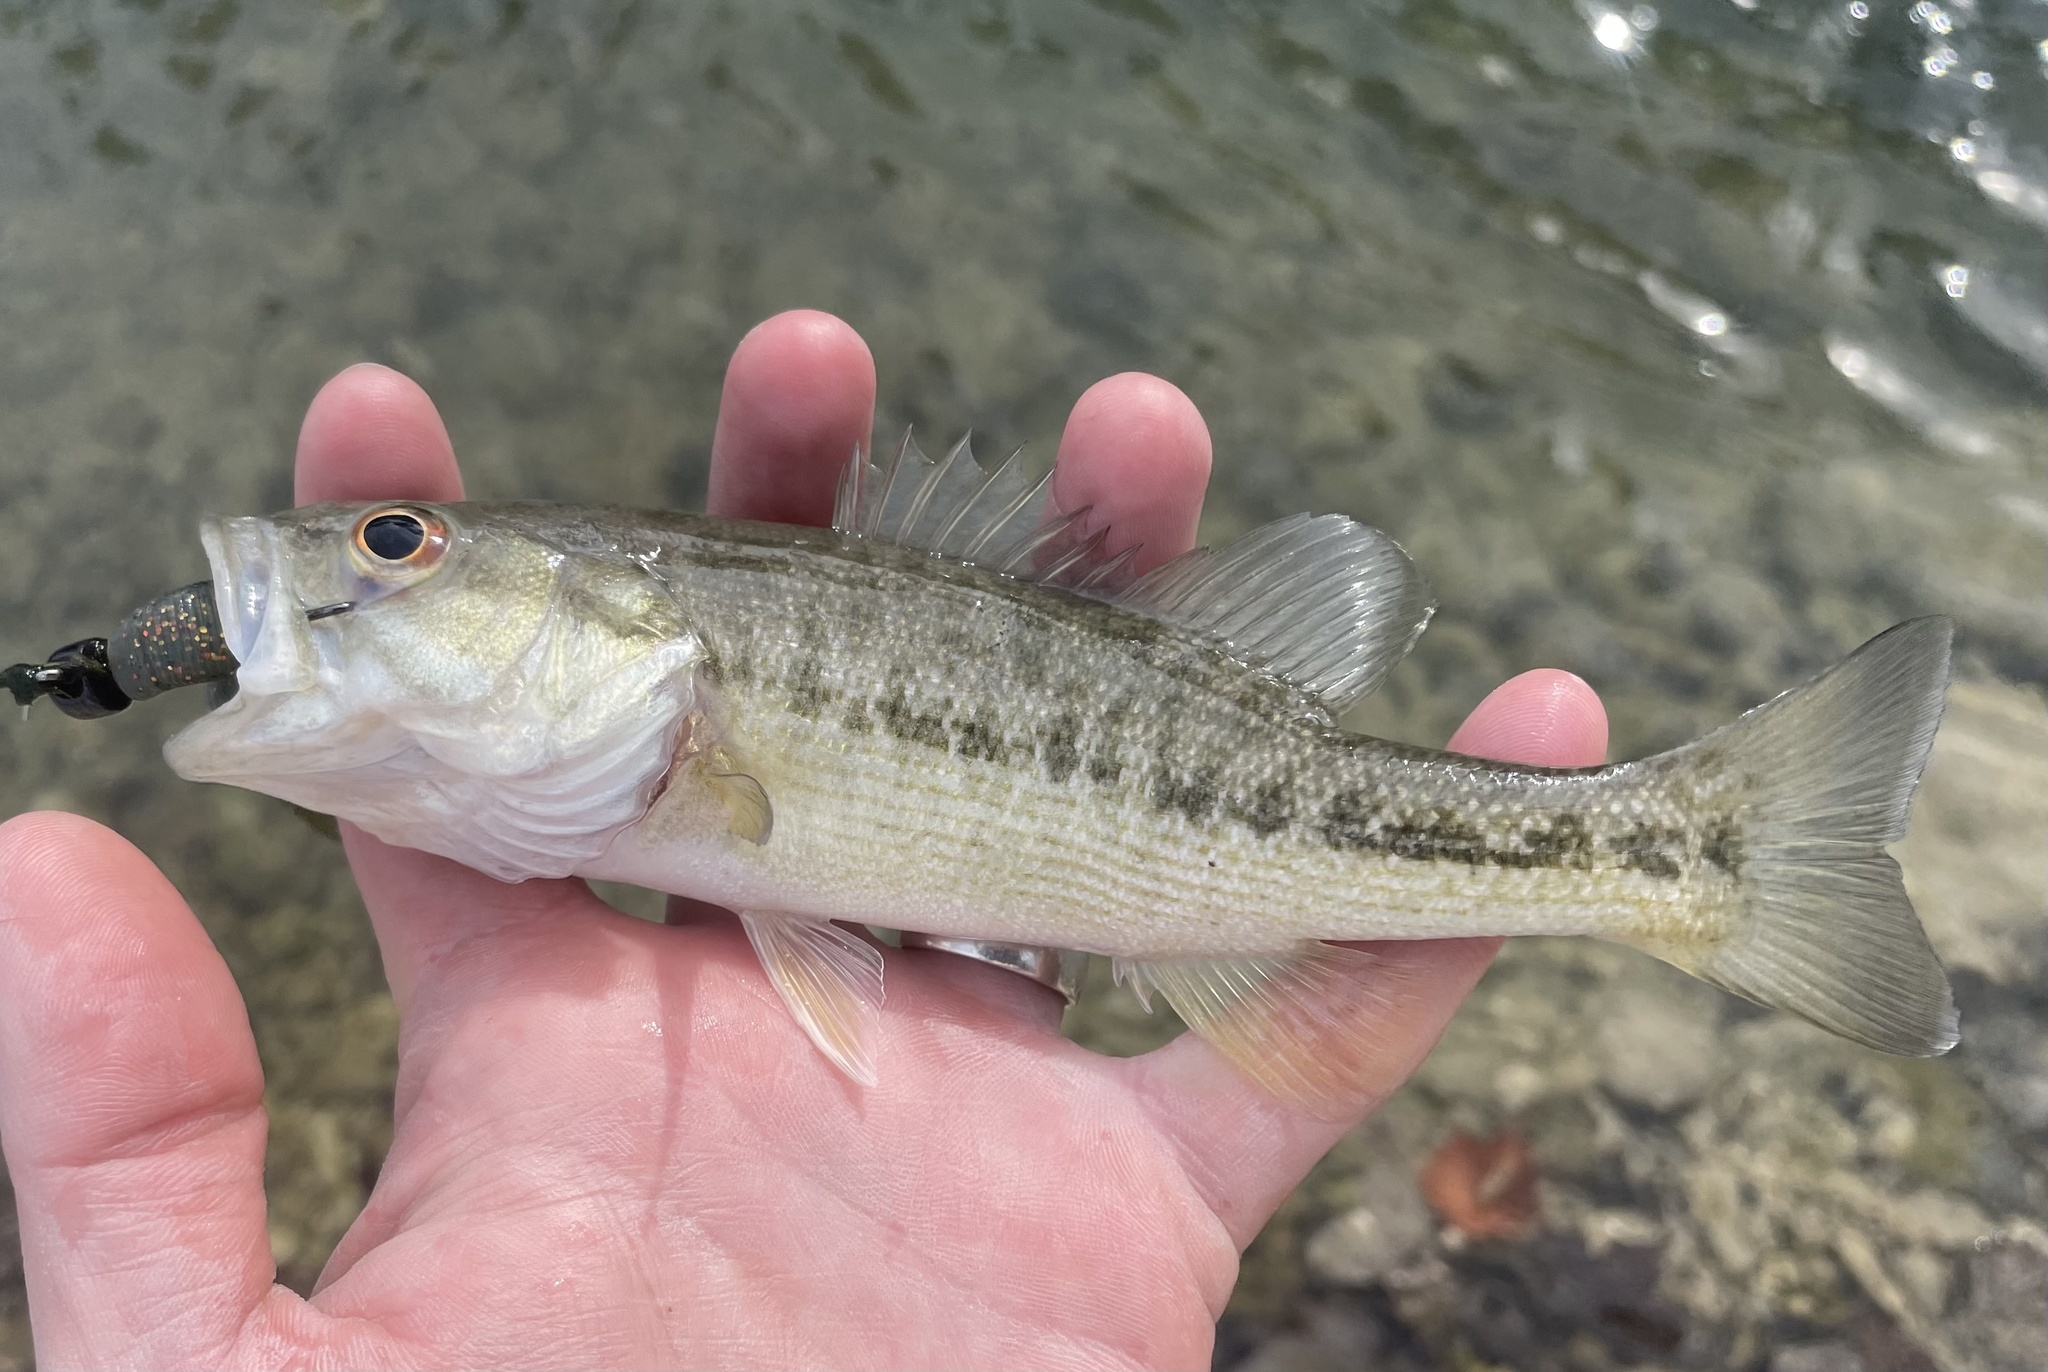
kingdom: Animalia
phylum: Chordata
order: Perciformes
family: Centrarchidae
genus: Micropterus
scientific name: Micropterus treculii
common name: Guadalupe bass
